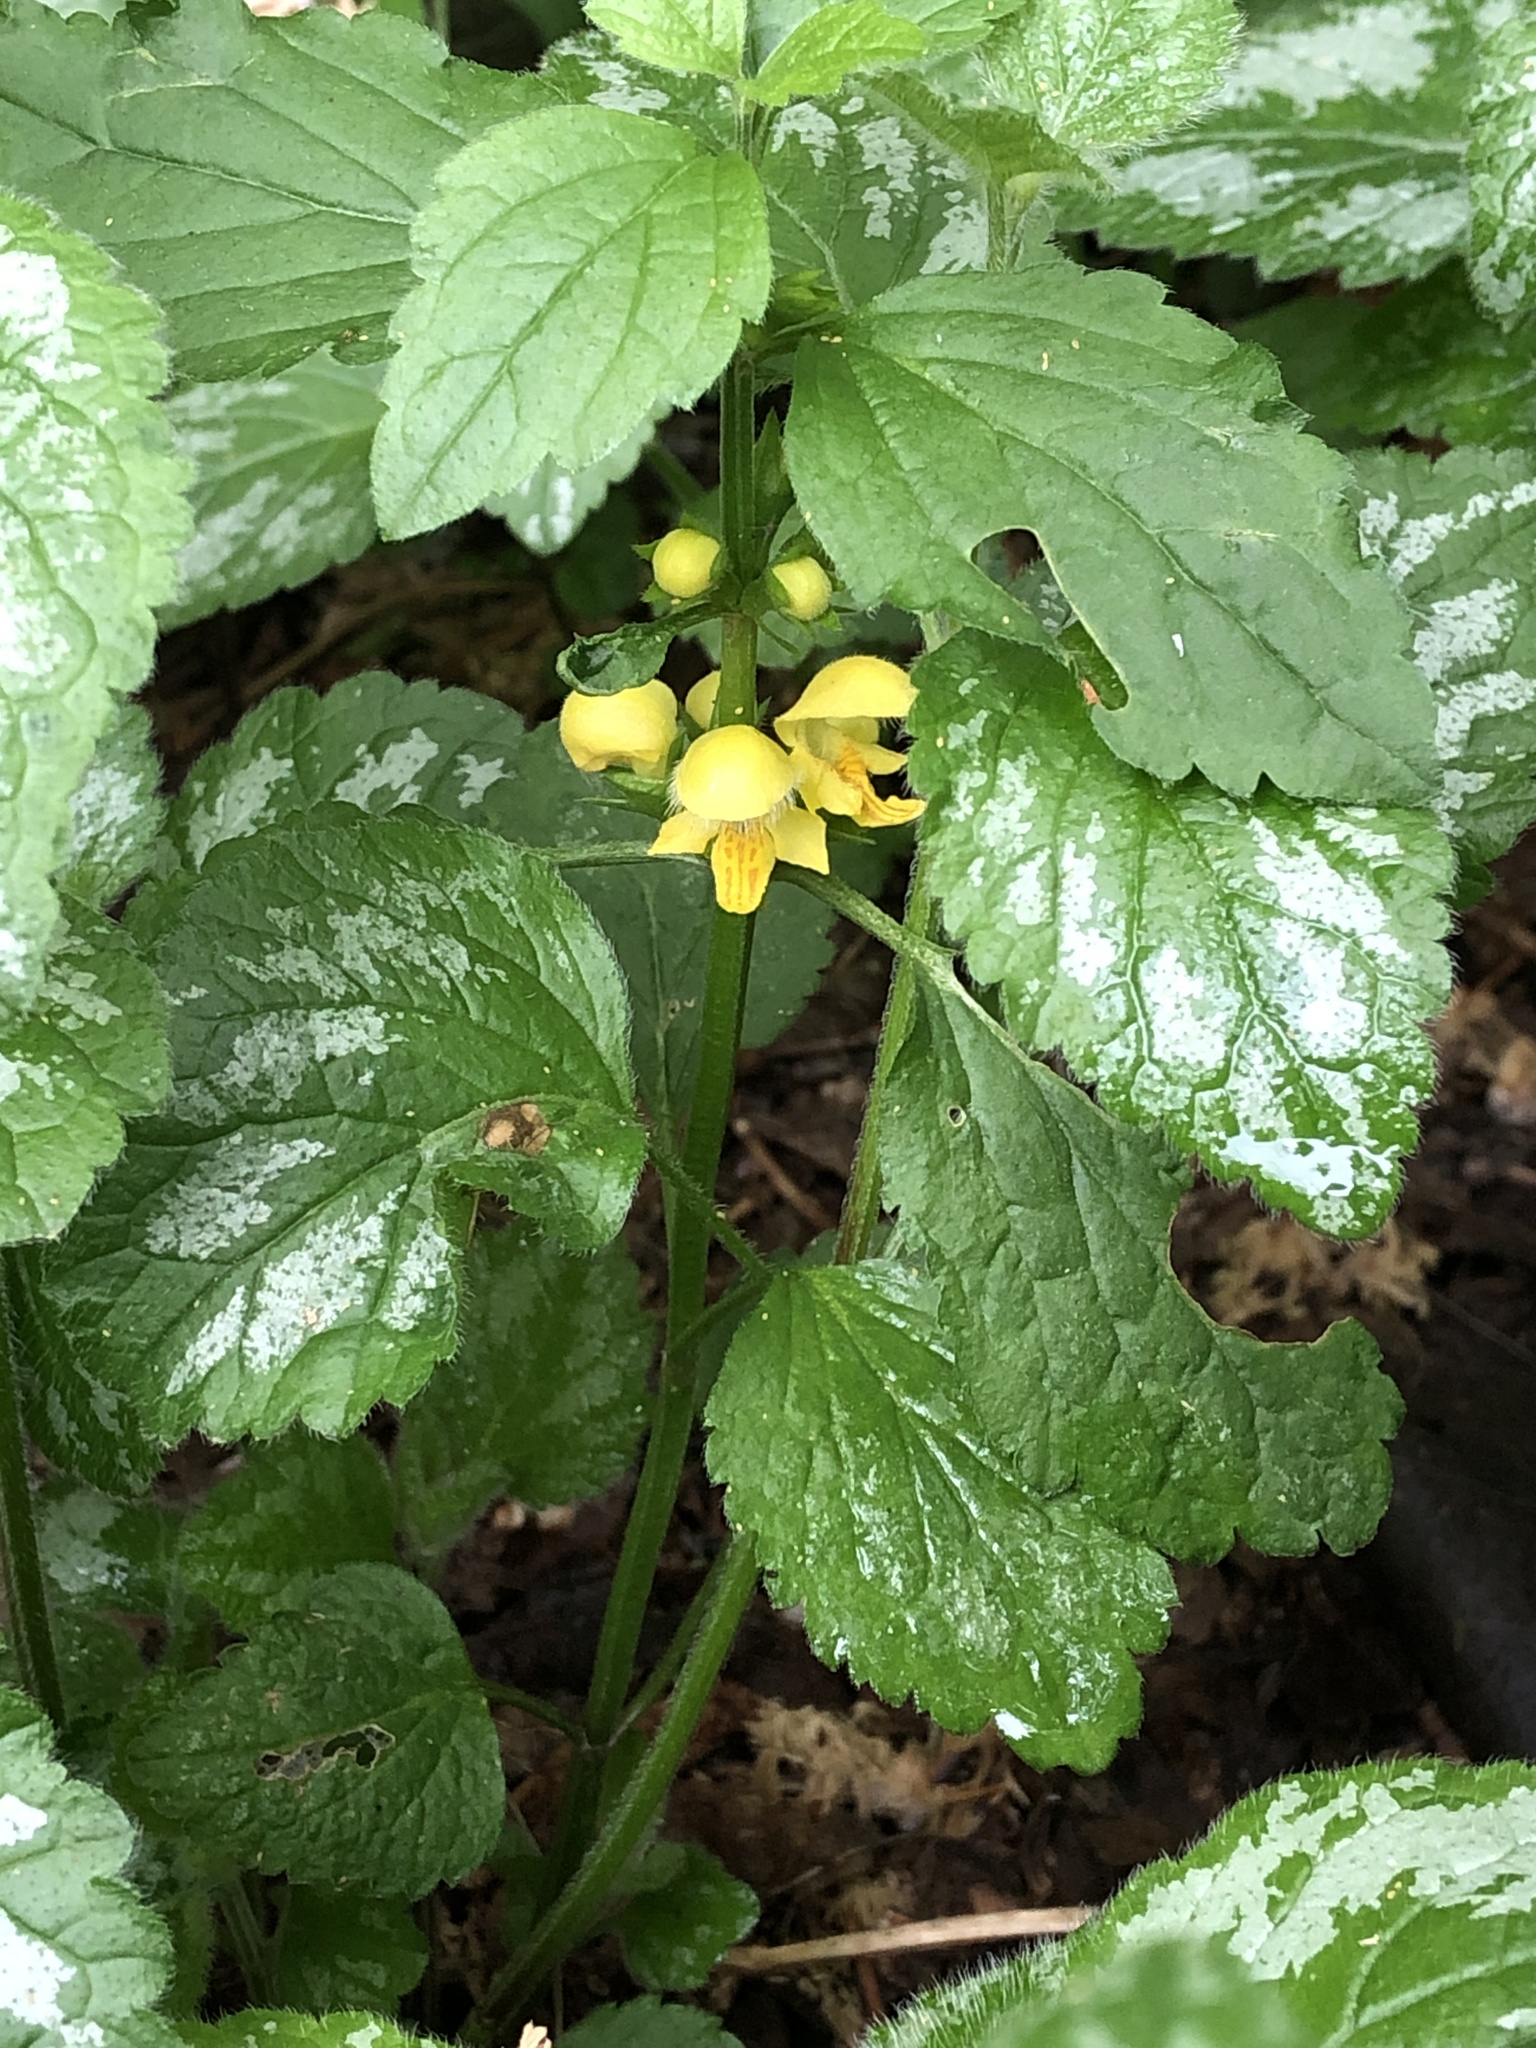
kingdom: Plantae
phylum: Tracheophyta
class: Magnoliopsida
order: Lamiales
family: Lamiaceae
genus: Lamium
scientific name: Lamium galeobdolon
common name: Yellow archangel
